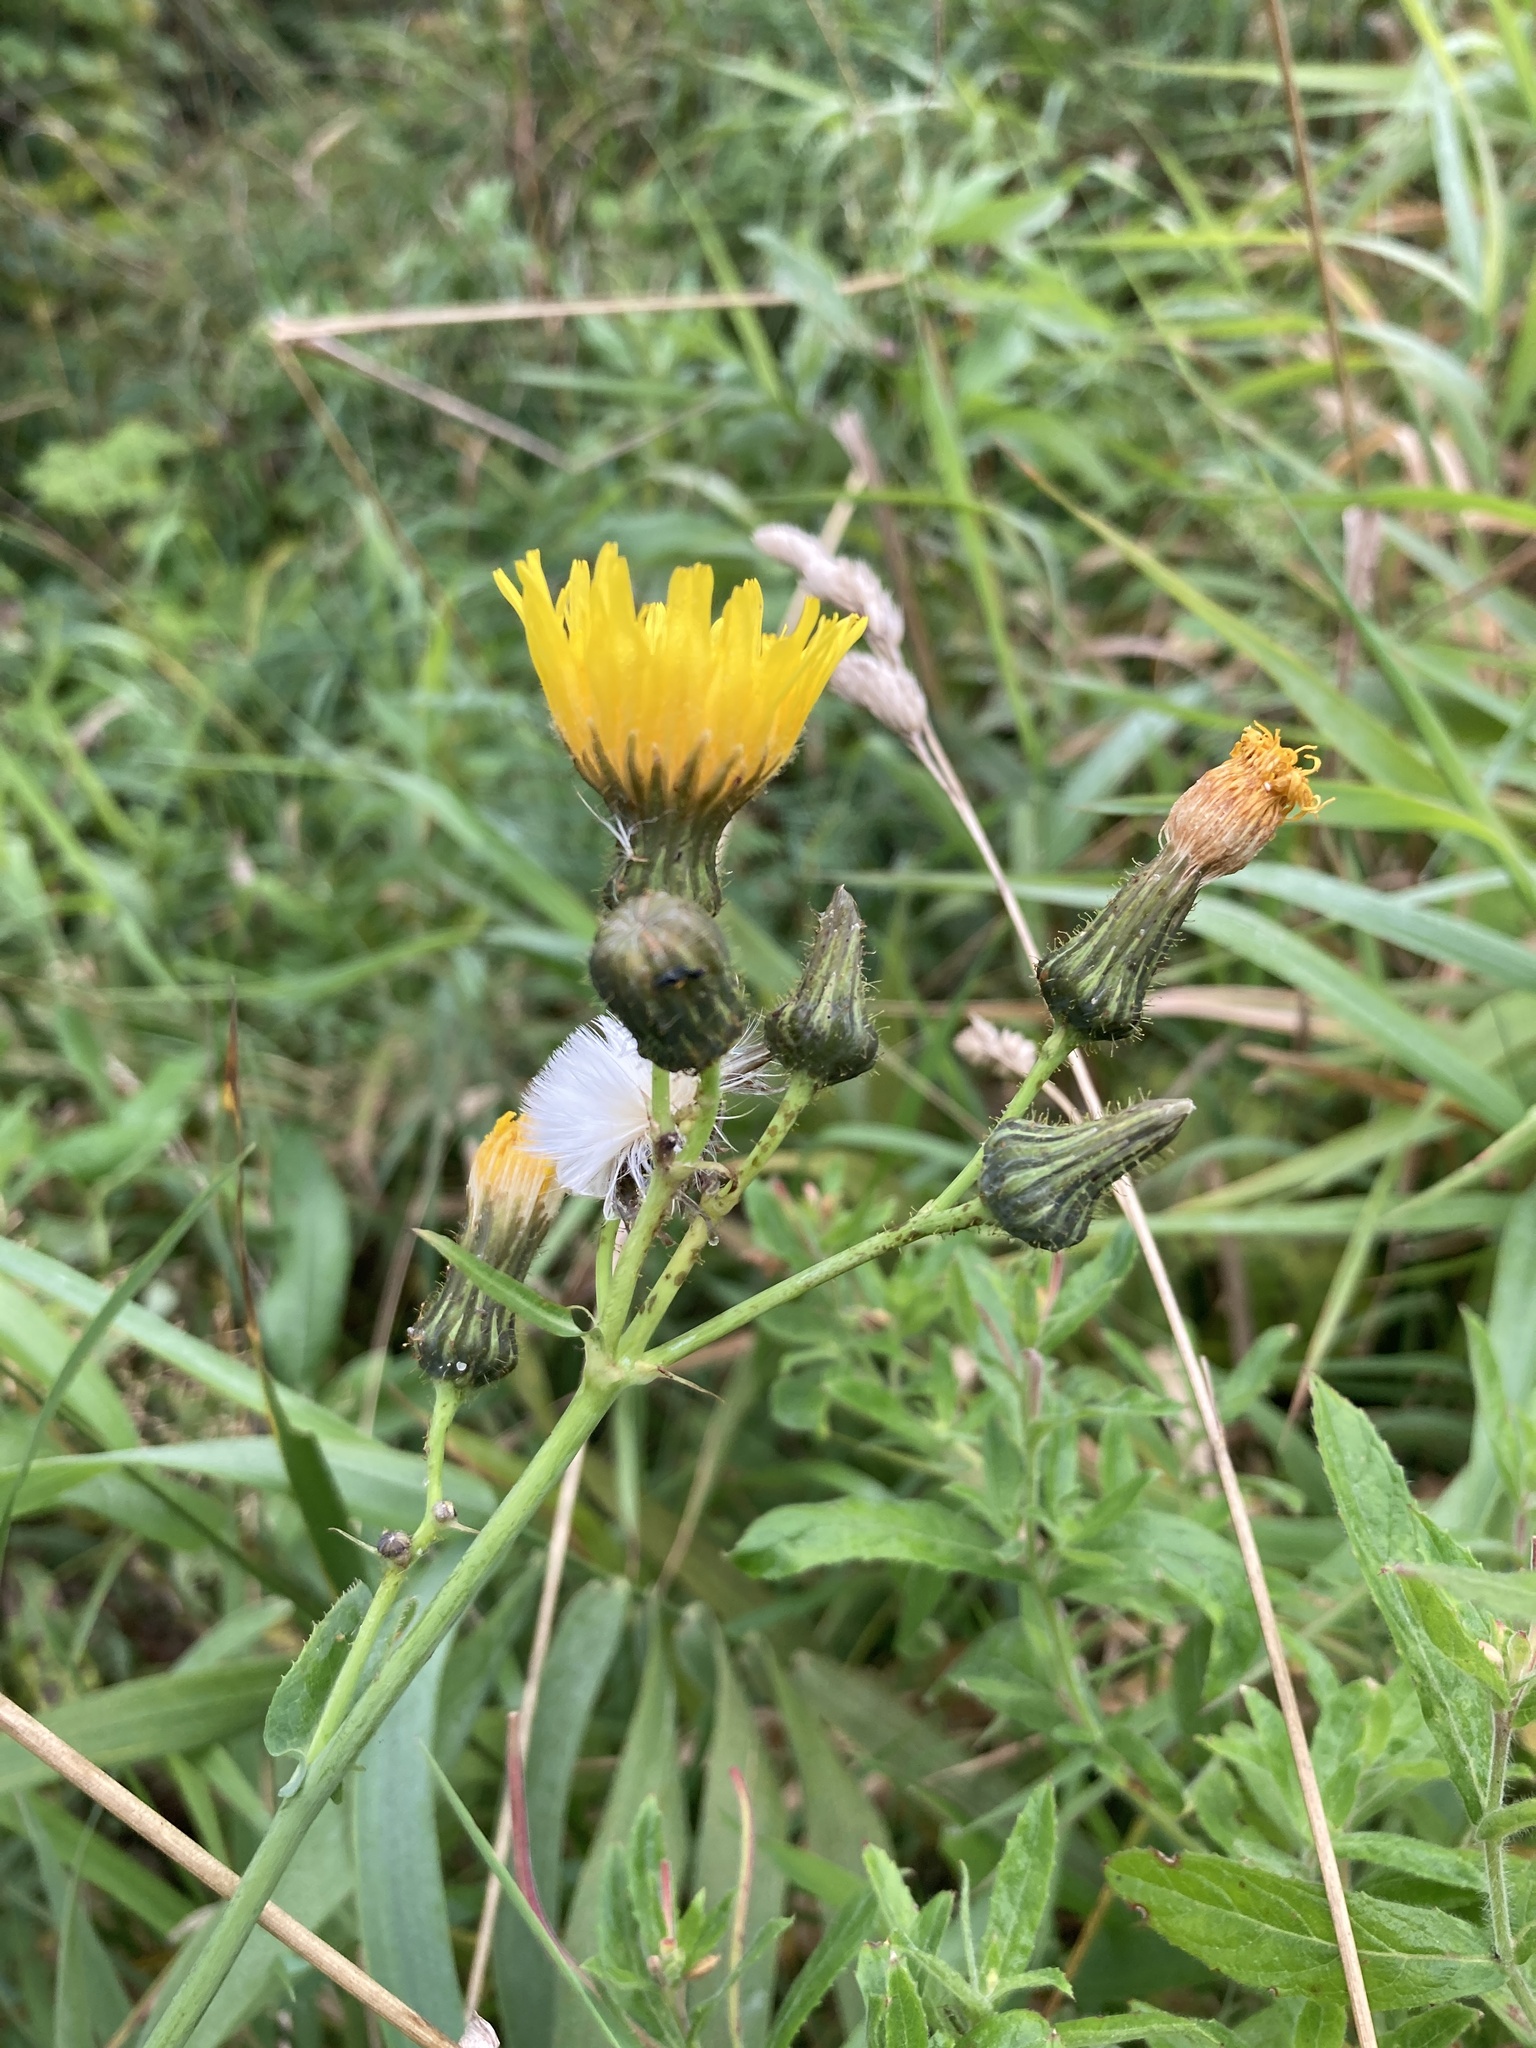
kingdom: Plantae
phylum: Tracheophyta
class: Magnoliopsida
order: Asterales
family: Asteraceae
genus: Sonchus
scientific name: Sonchus arvensis
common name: Perennial sow-thistle
